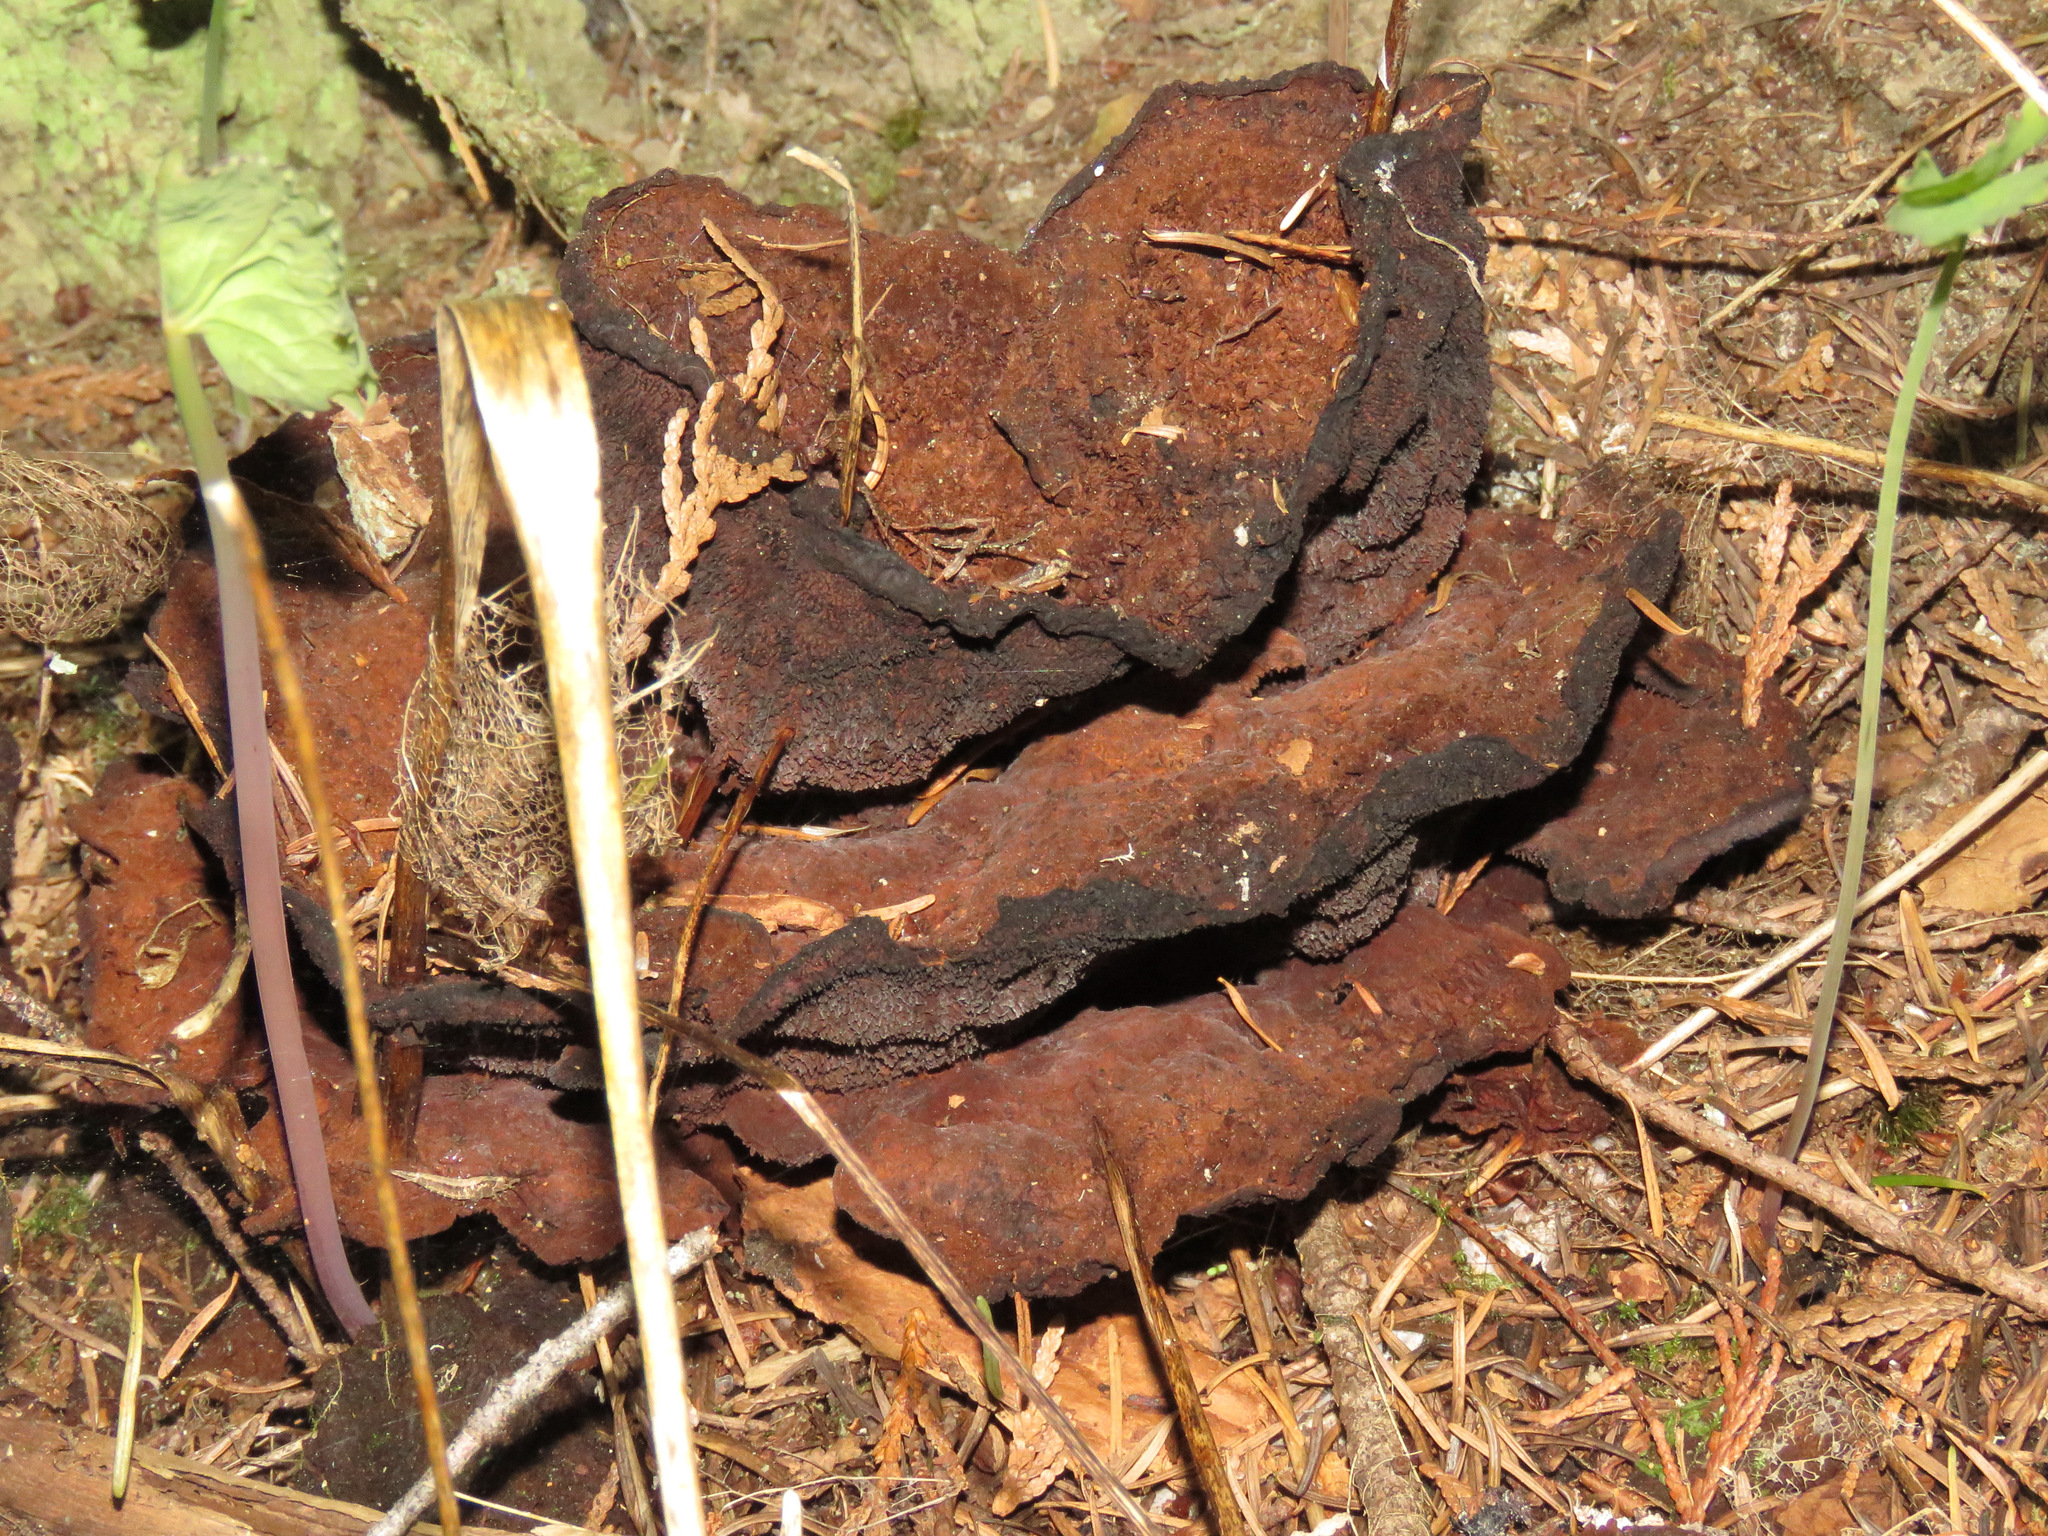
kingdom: Fungi
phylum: Basidiomycota
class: Agaricomycetes
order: Polyporales
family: Laetiporaceae
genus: Phaeolus
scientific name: Phaeolus schweinitzii
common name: Dyer's mazegill
